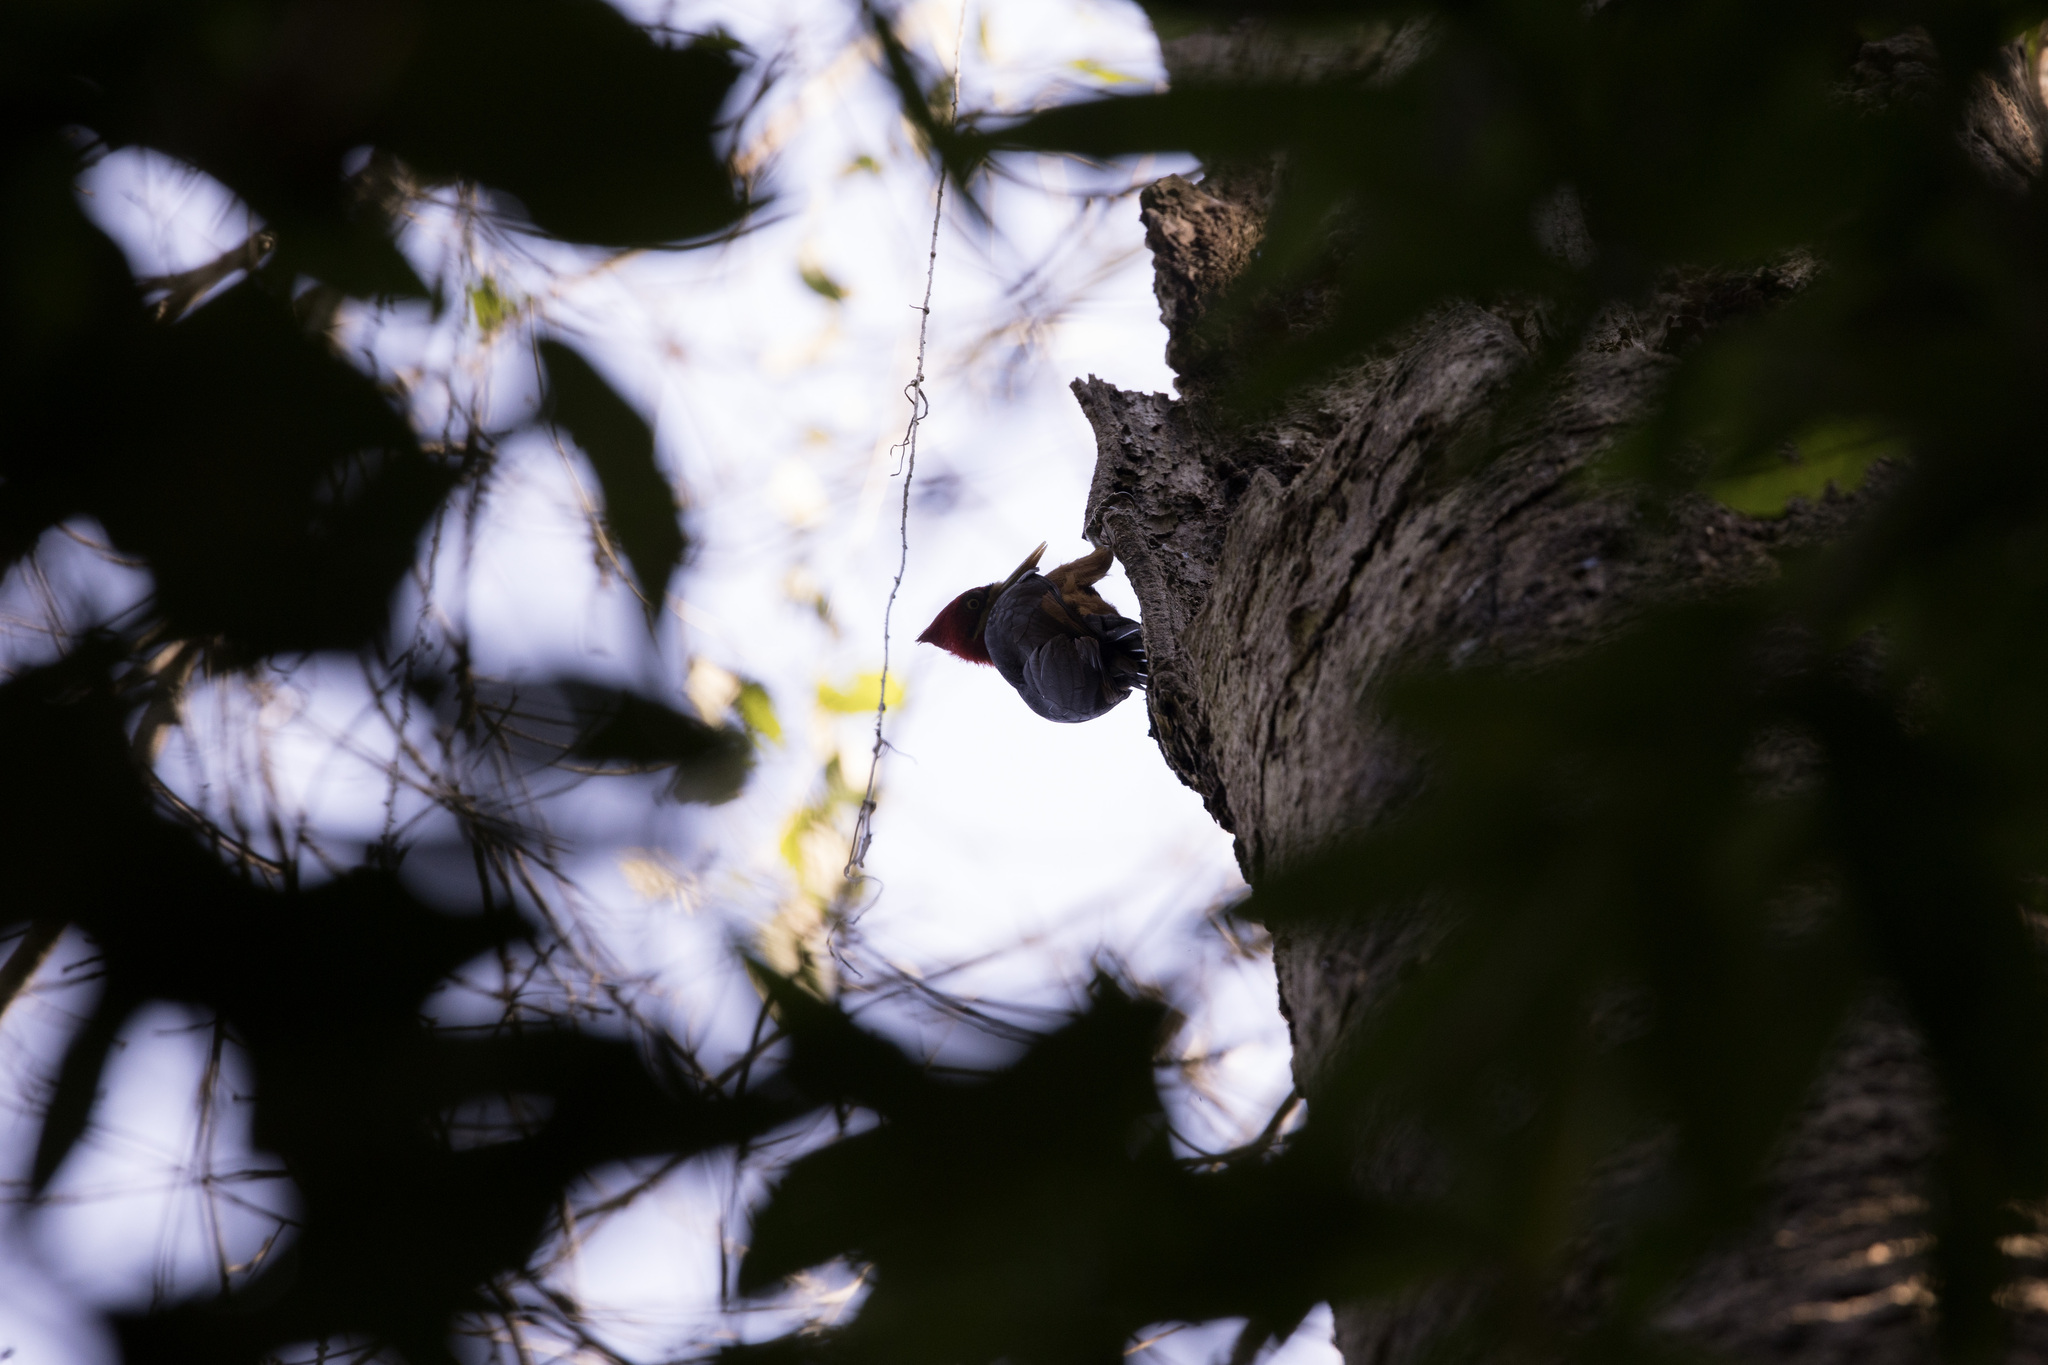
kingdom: Animalia
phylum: Chordata
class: Aves
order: Piciformes
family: Picidae
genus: Campephilus
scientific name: Campephilus rubricollis
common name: Red-necked woodpecker
